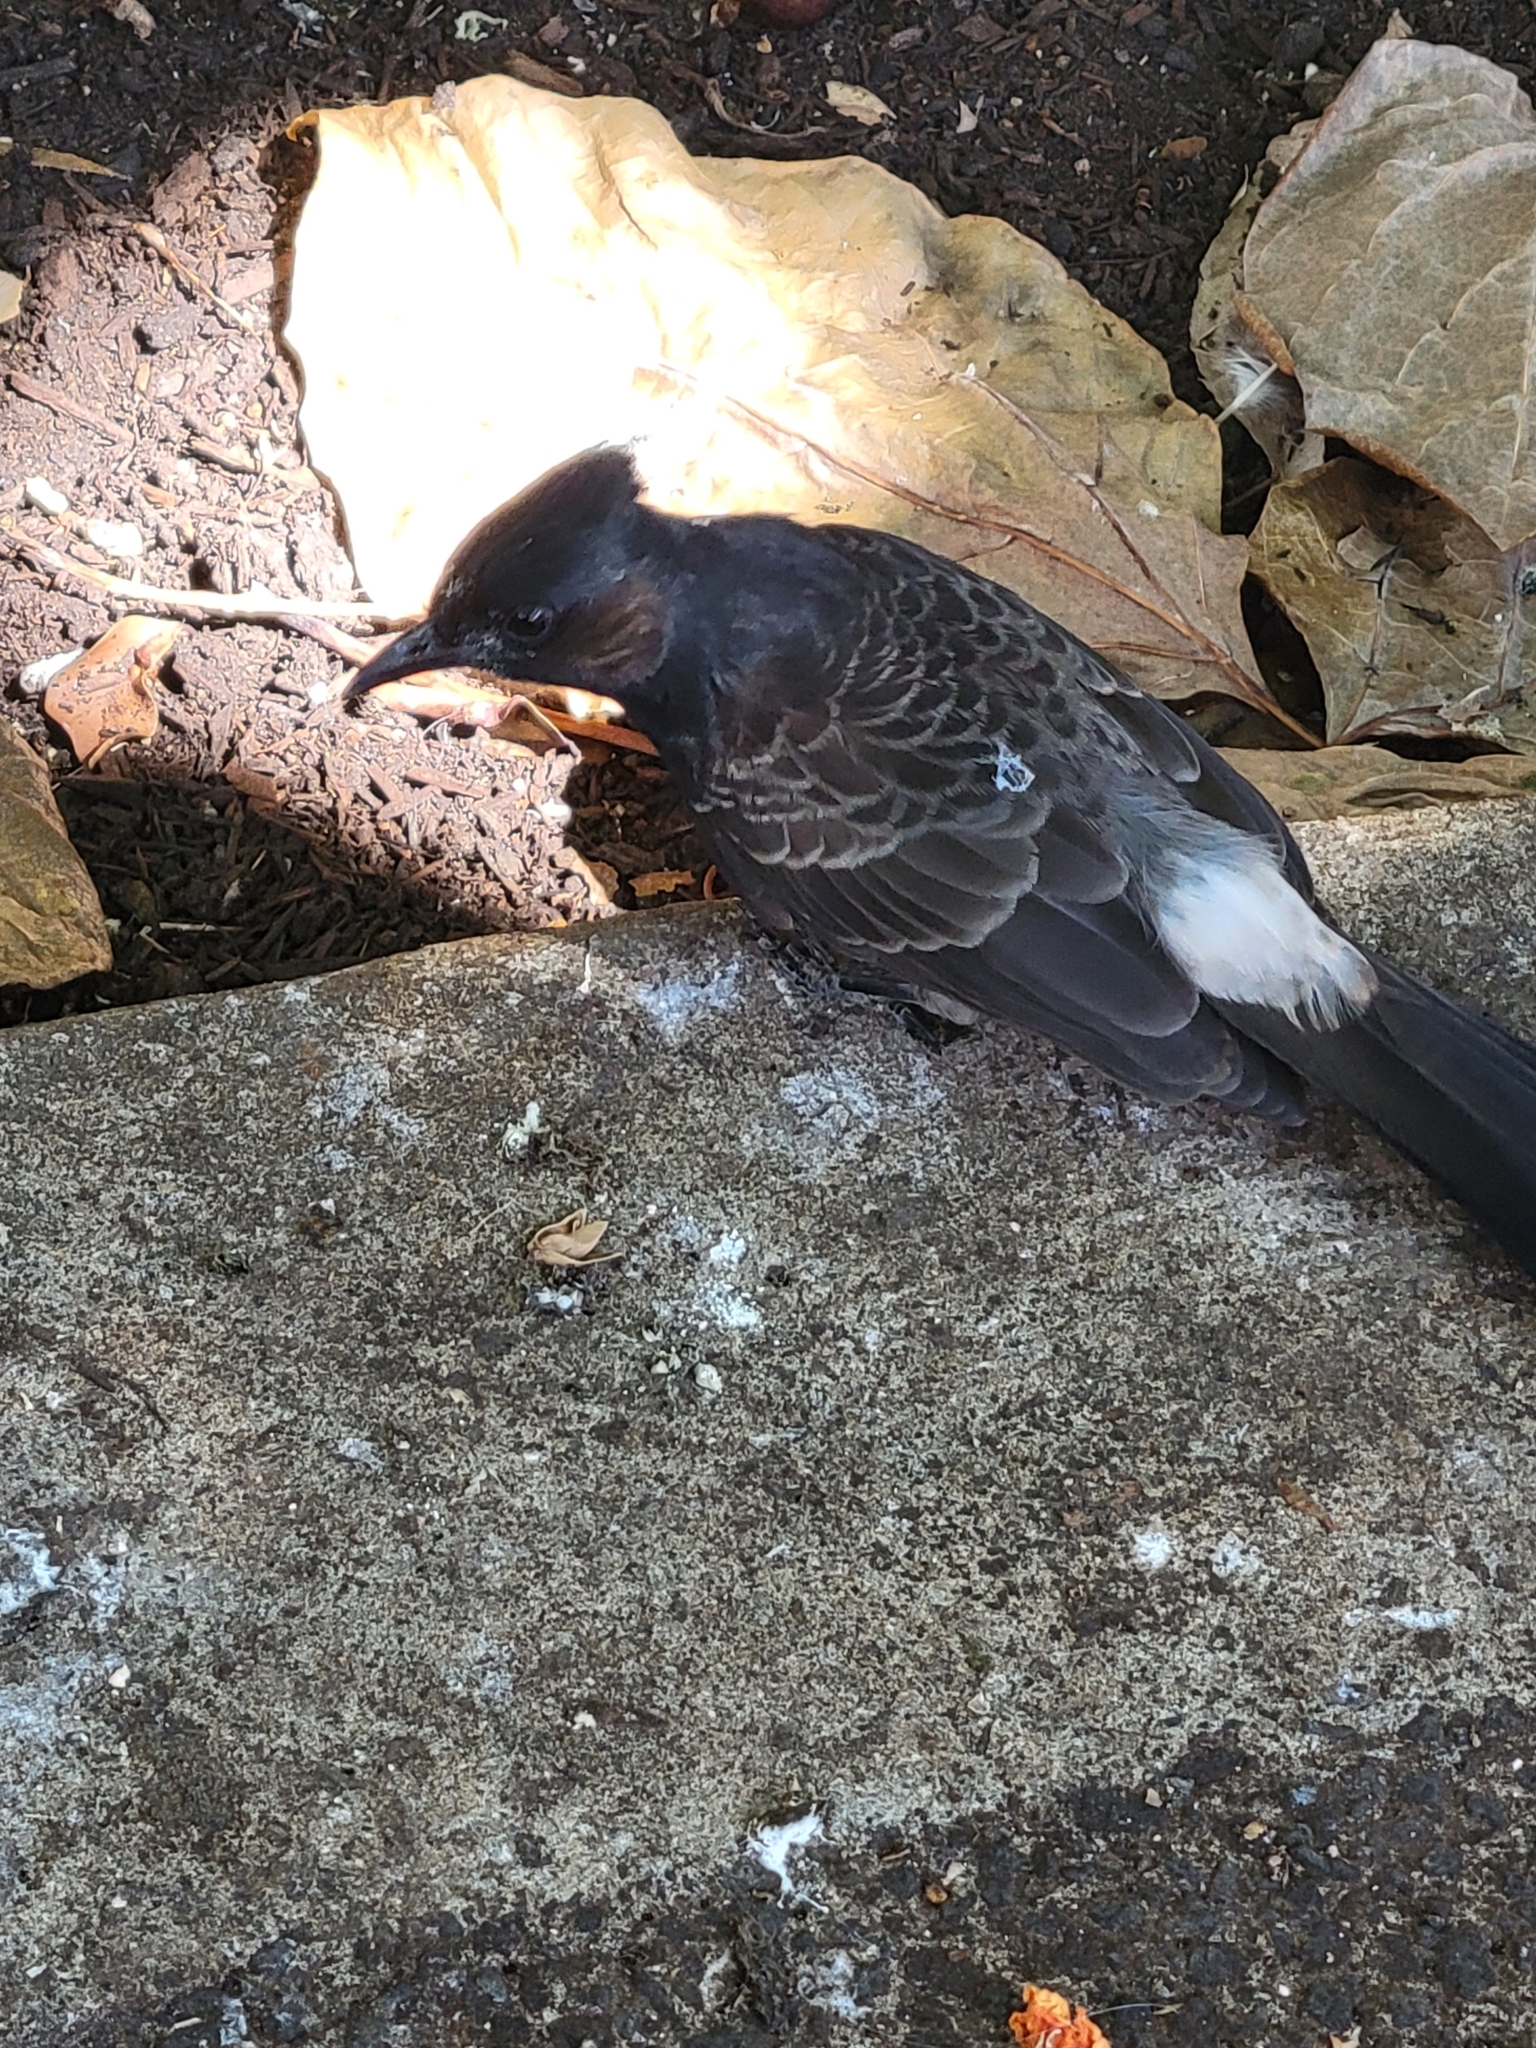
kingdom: Animalia
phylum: Chordata
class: Aves
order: Passeriformes
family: Pycnonotidae
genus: Pycnonotus
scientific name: Pycnonotus cafer
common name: Red-vented bulbul
